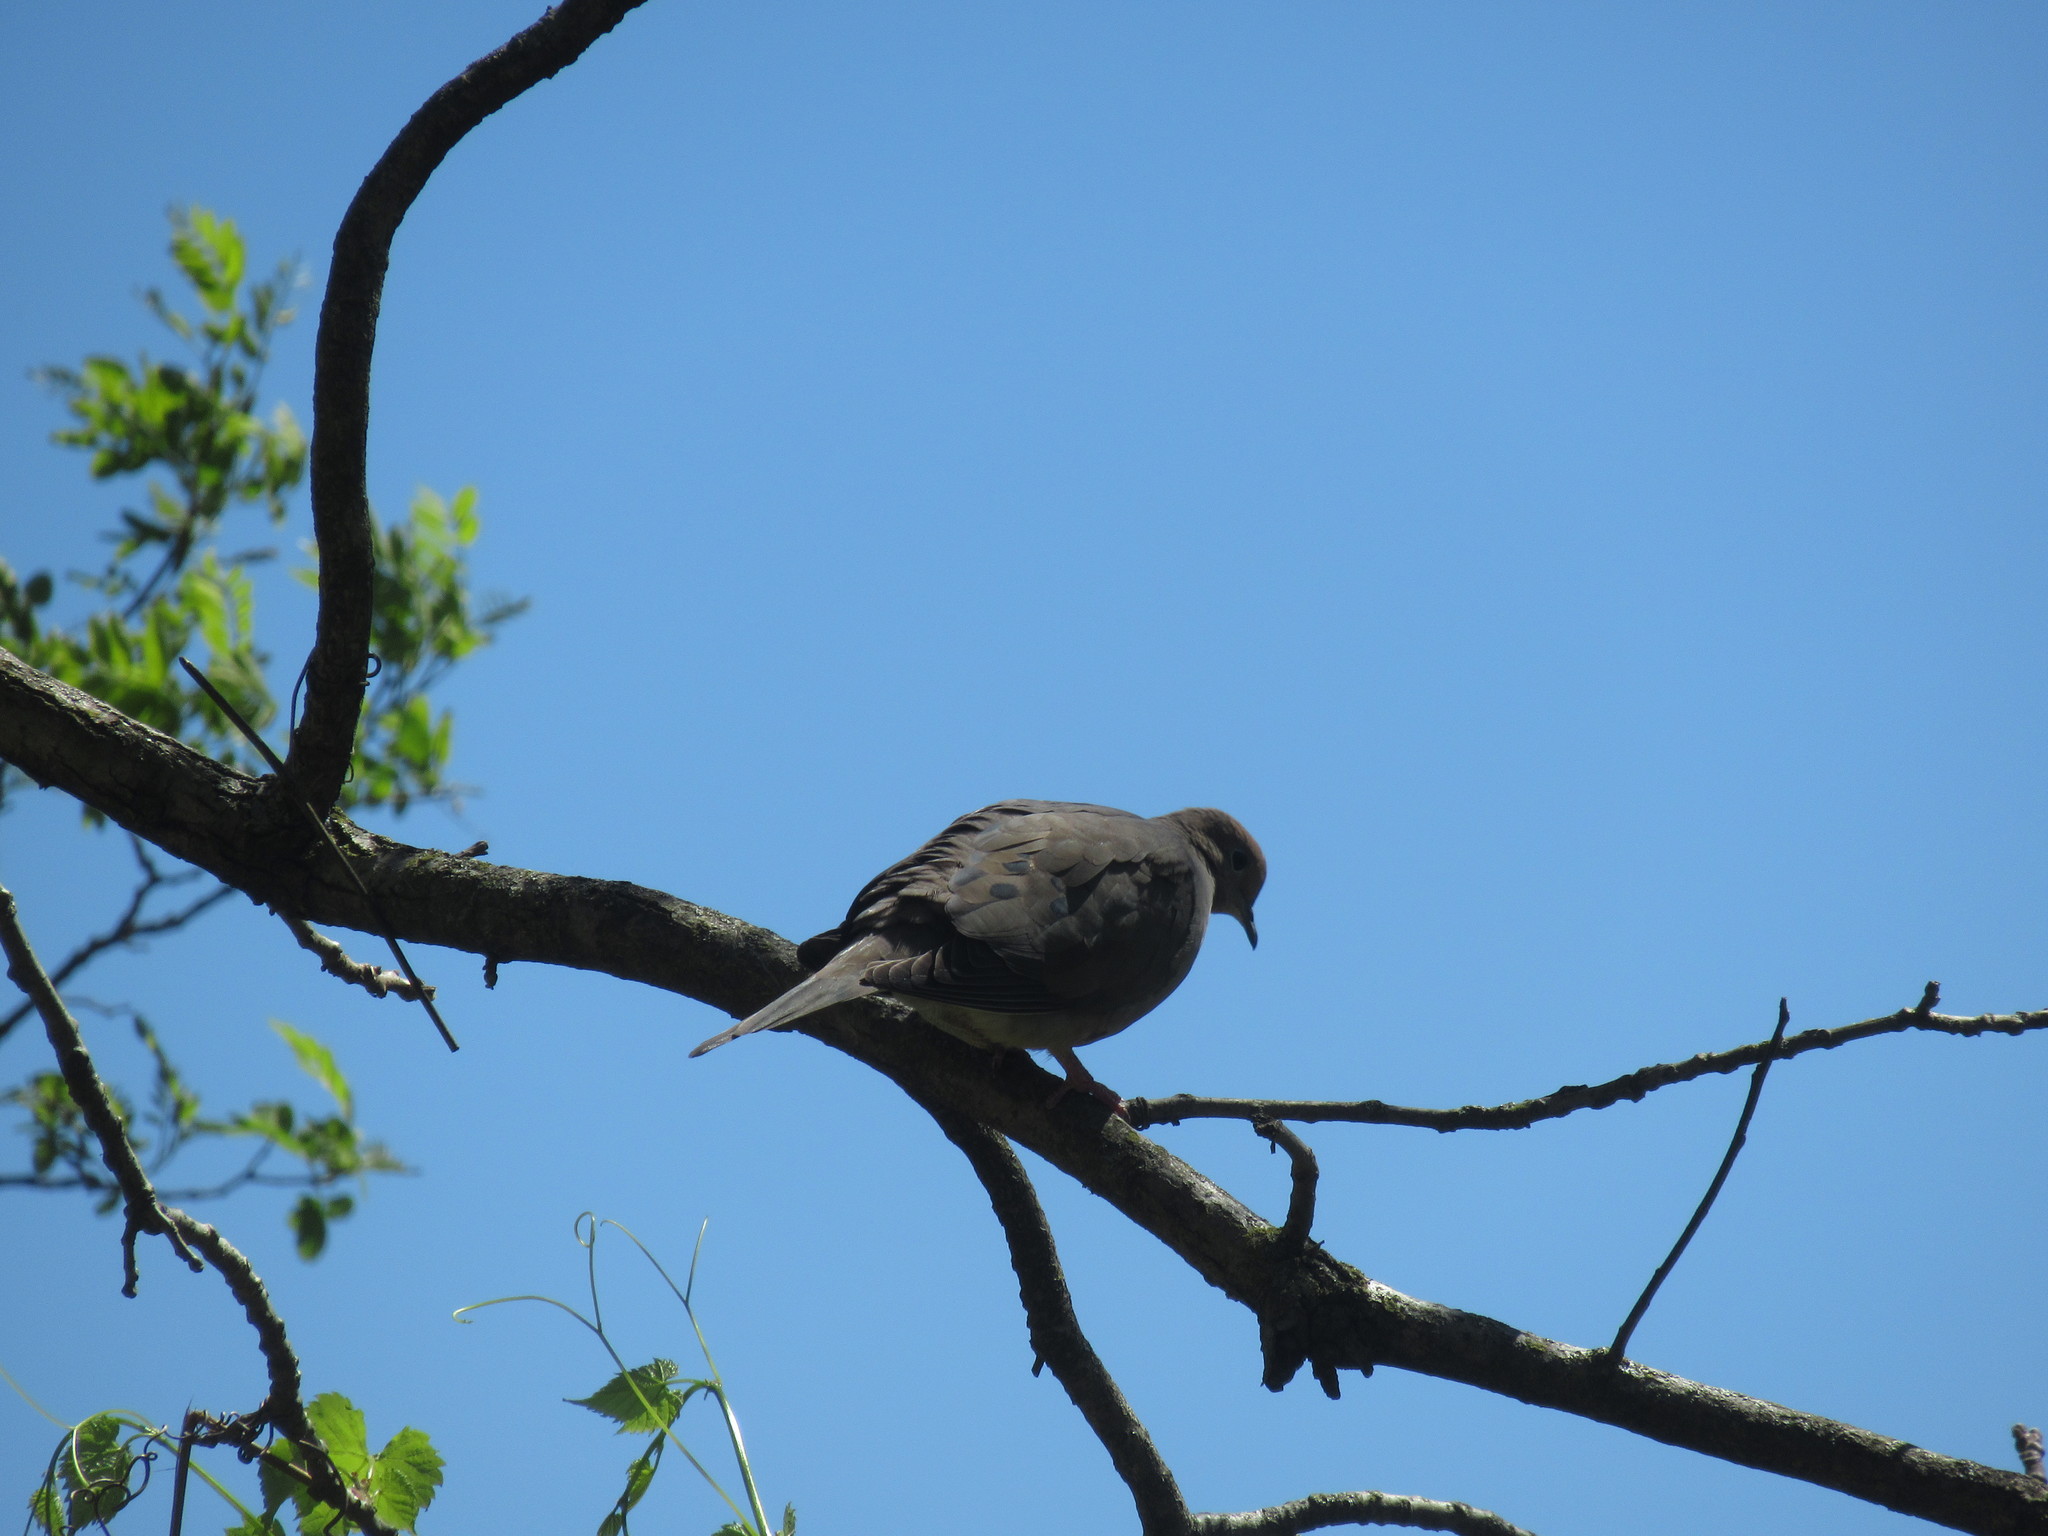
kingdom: Animalia
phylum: Chordata
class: Aves
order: Columbiformes
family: Columbidae
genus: Zenaida
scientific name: Zenaida macroura
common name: Mourning dove
